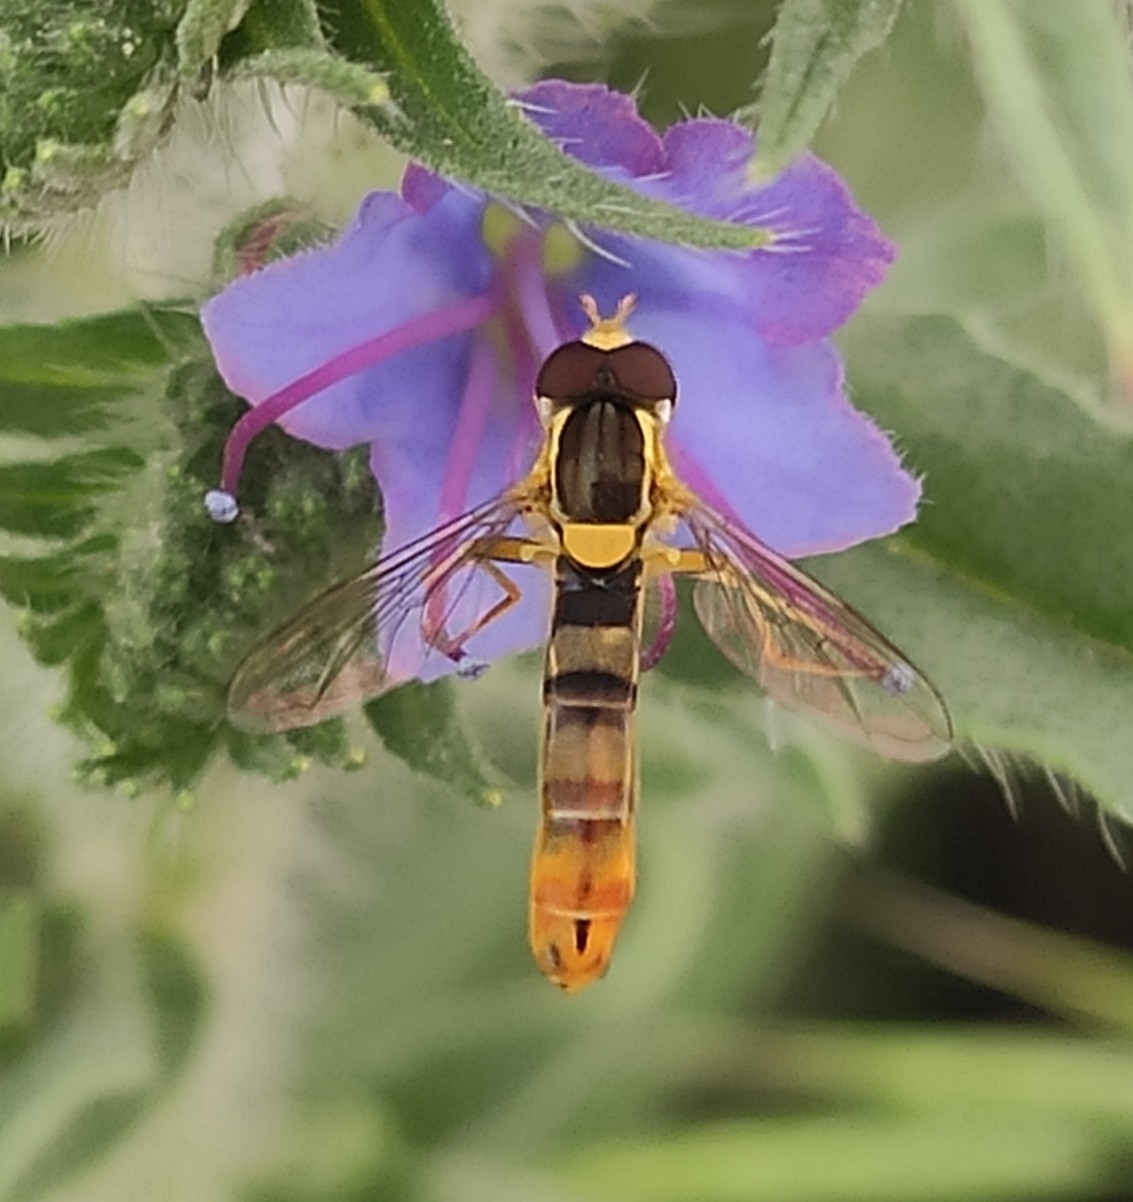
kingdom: Animalia
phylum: Arthropoda
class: Insecta
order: Diptera
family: Syrphidae
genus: Sphaerophoria
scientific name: Sphaerophoria scripta
